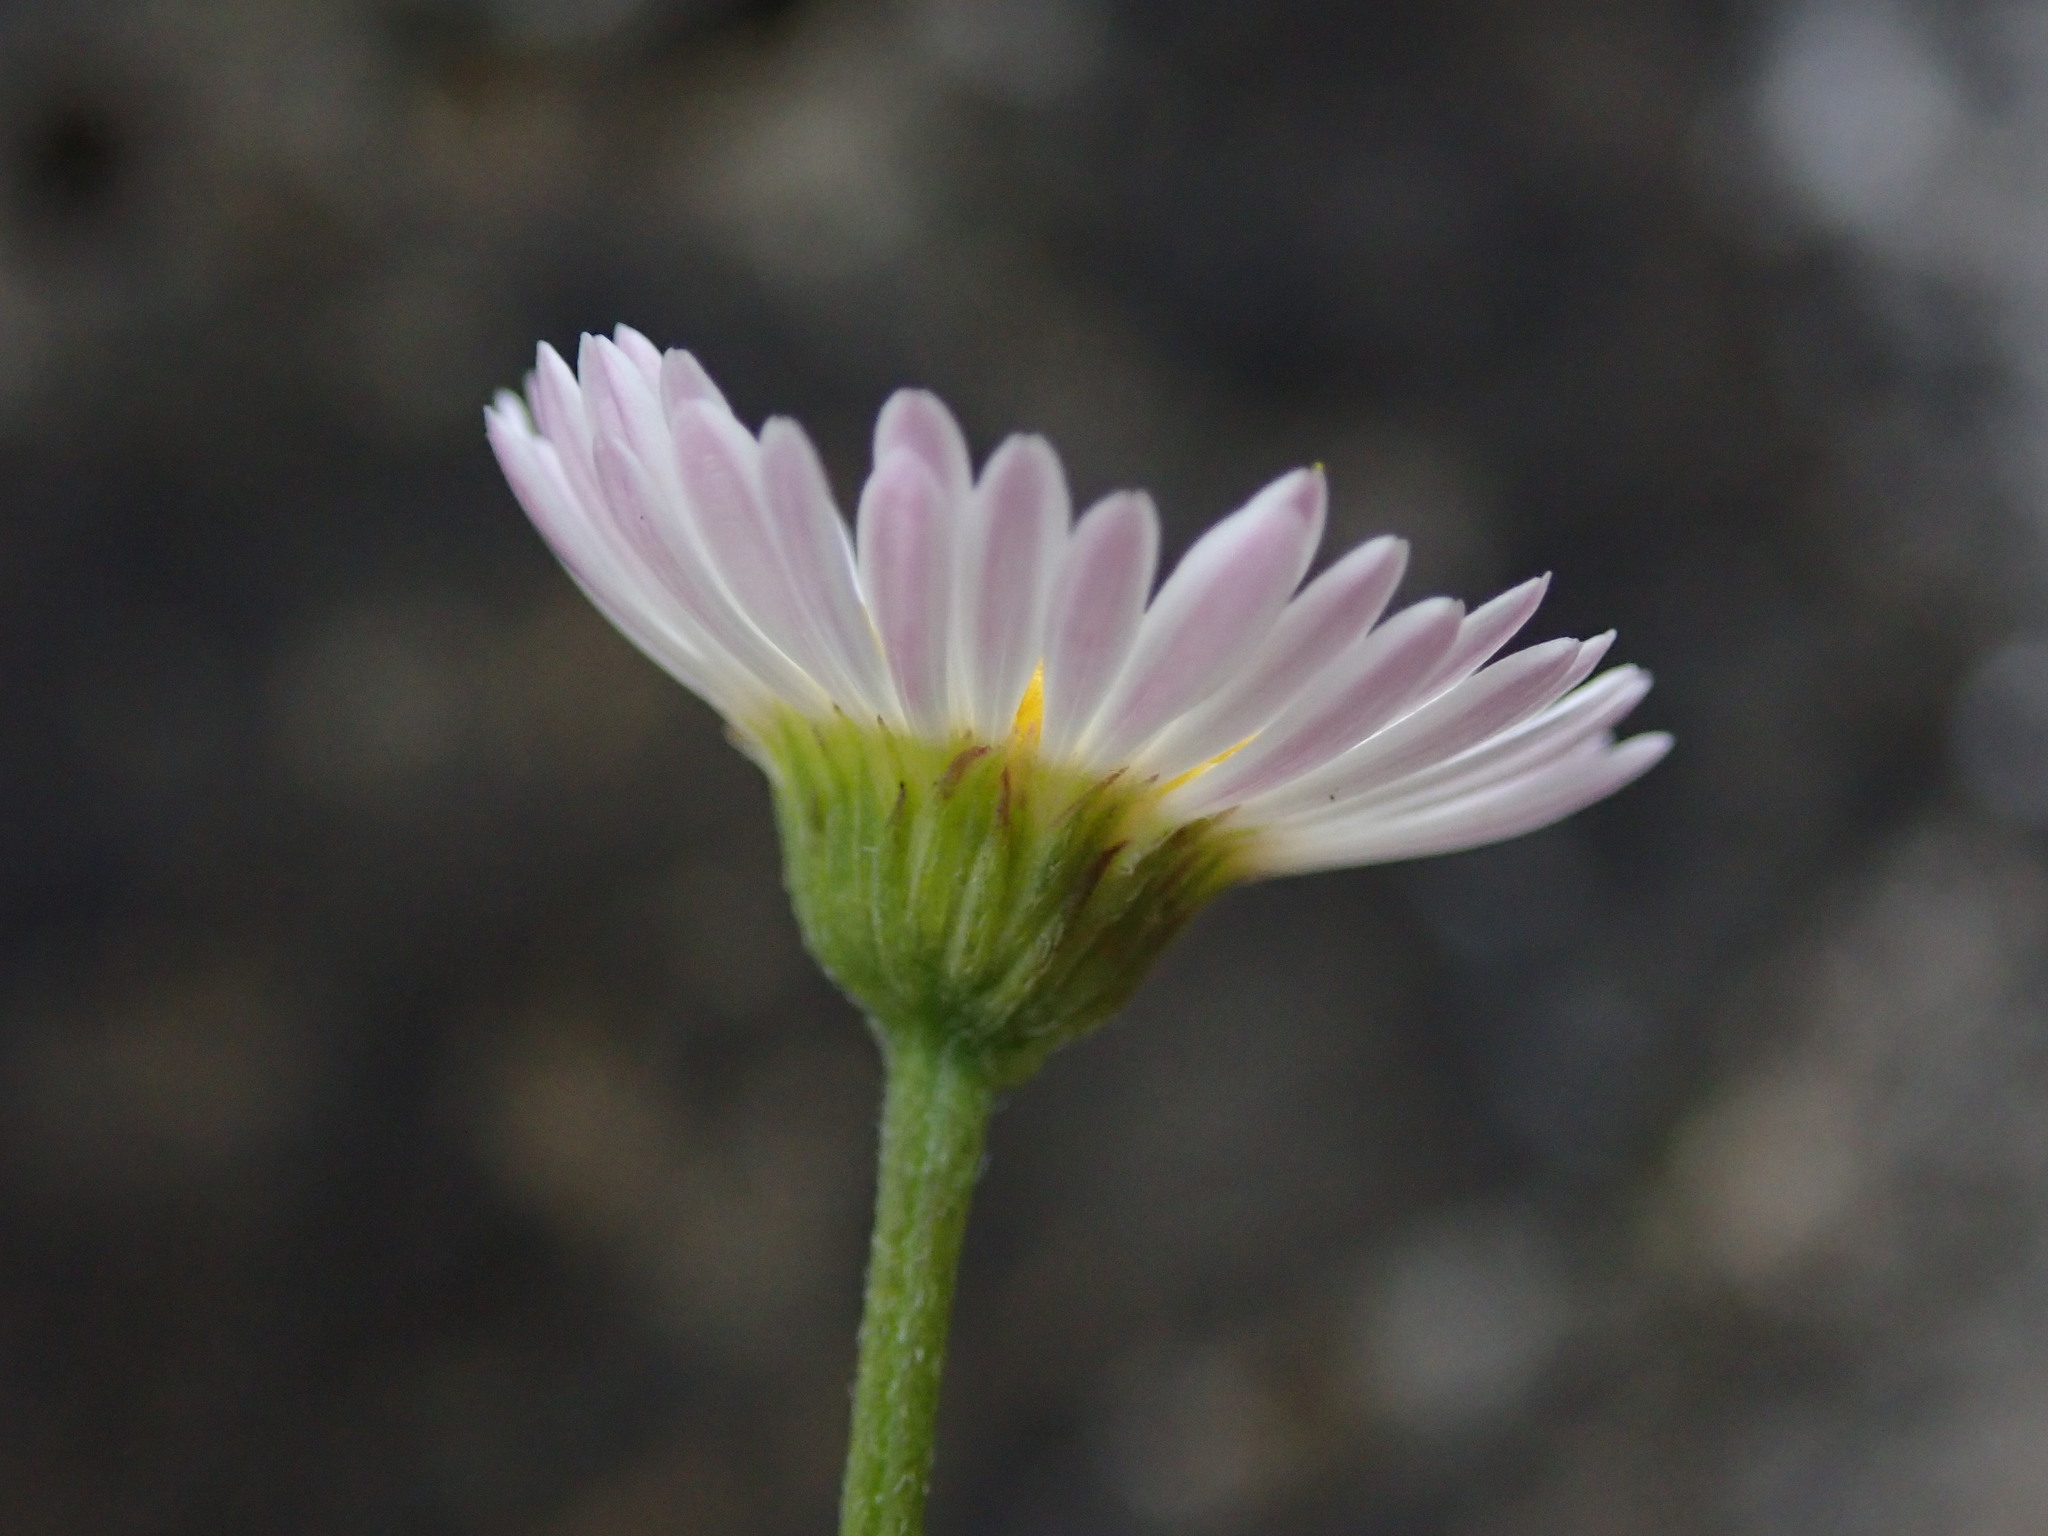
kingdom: Plantae
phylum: Tracheophyta
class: Magnoliopsida
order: Asterales
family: Asteraceae
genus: Erigeron
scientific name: Erigeron karvinskianus
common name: Mexican fleabane
